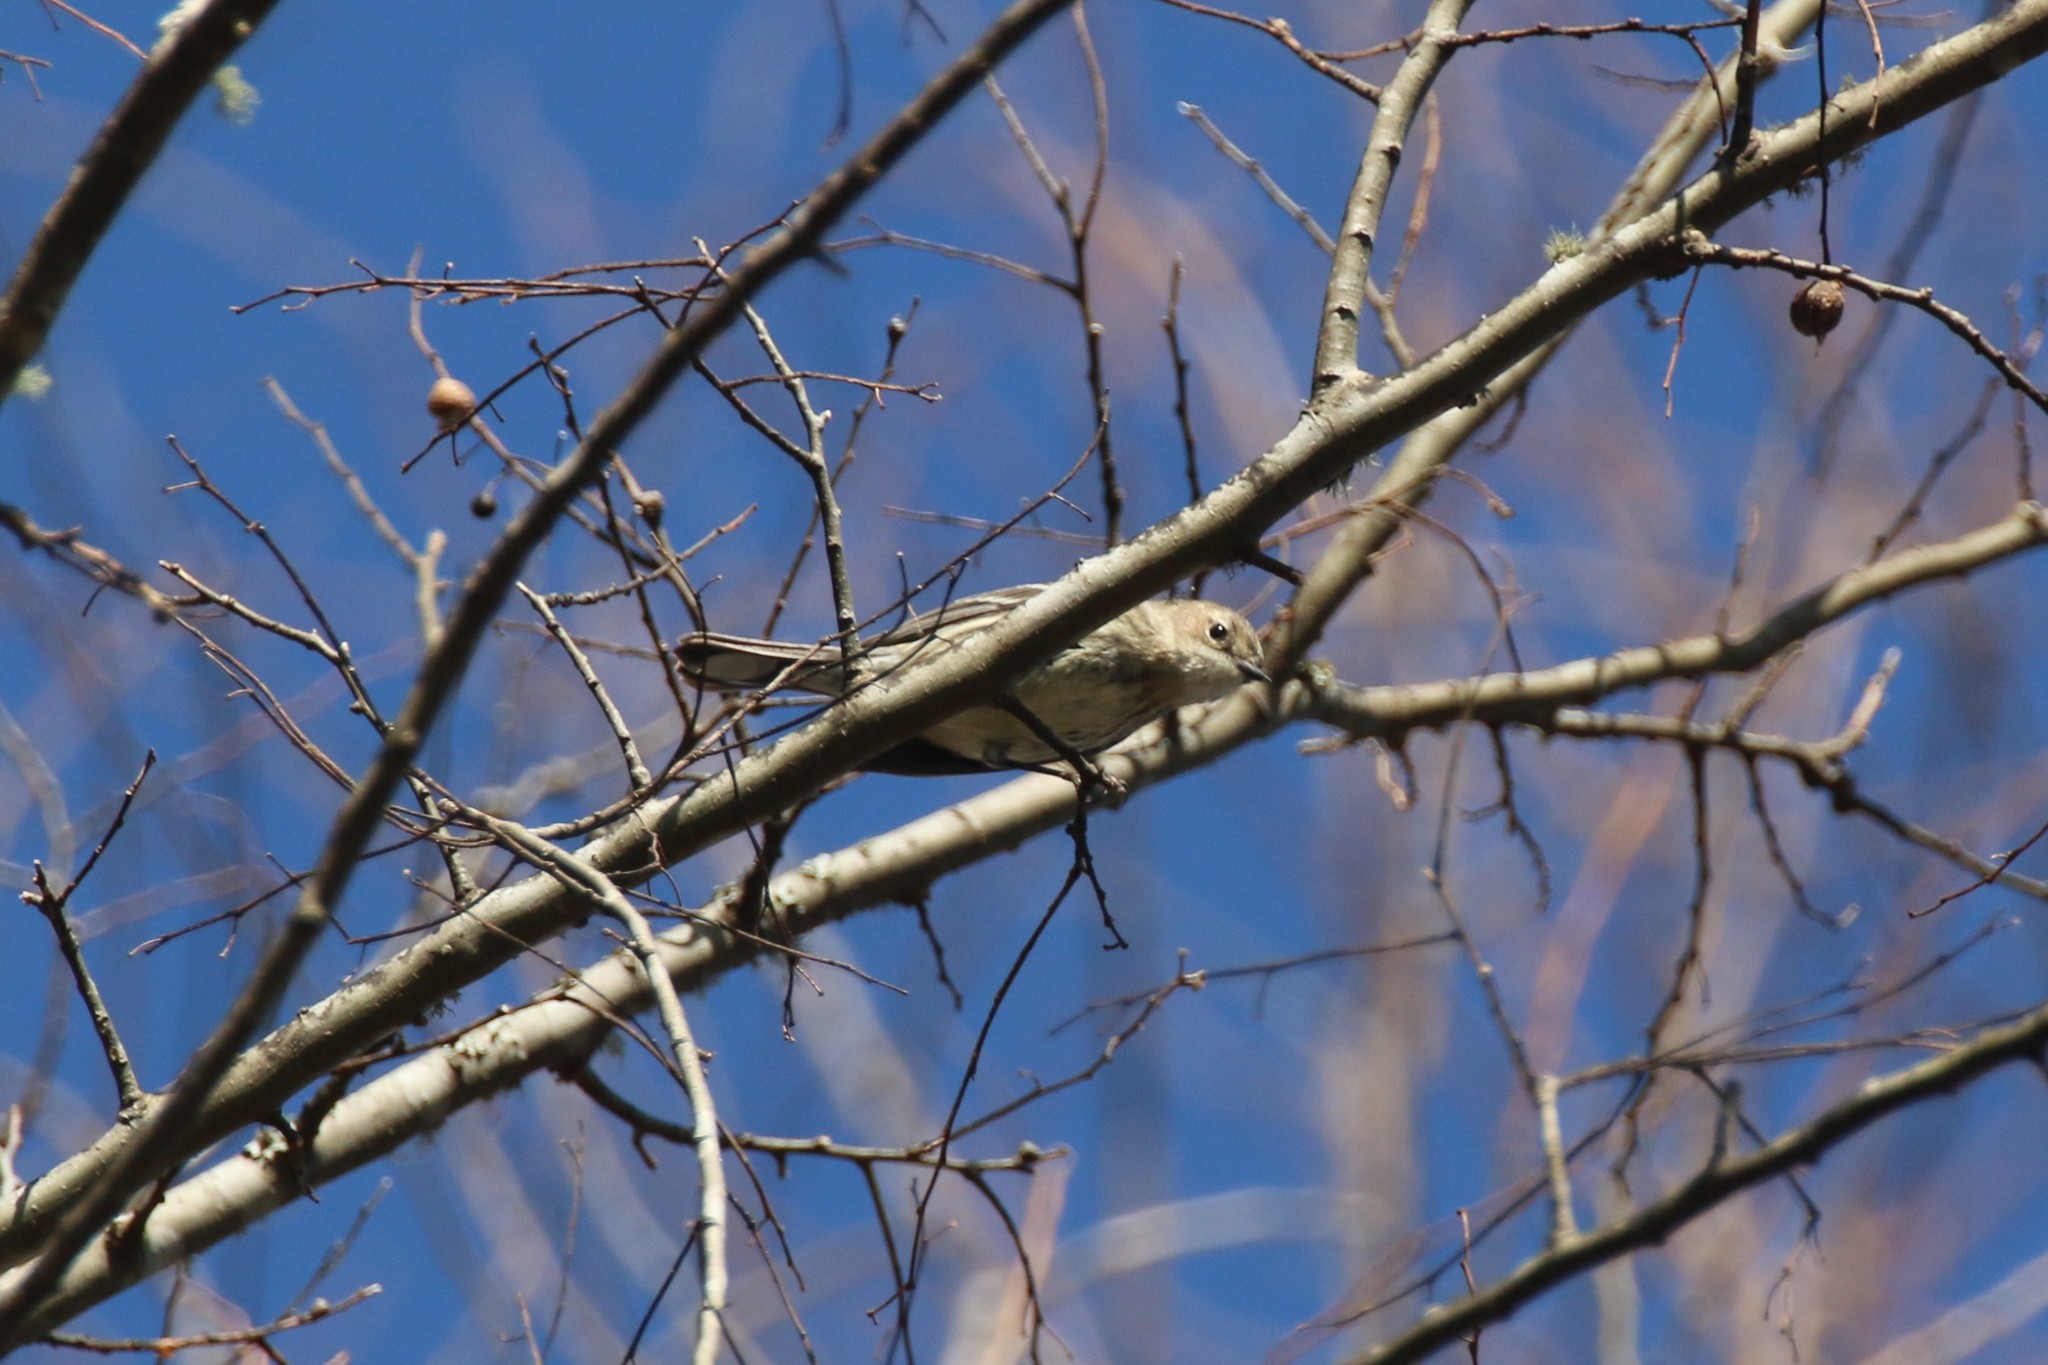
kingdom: Animalia
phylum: Chordata
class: Aves
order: Passeriformes
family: Parulidae
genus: Setophaga
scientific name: Setophaga coronata
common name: Myrtle warbler
